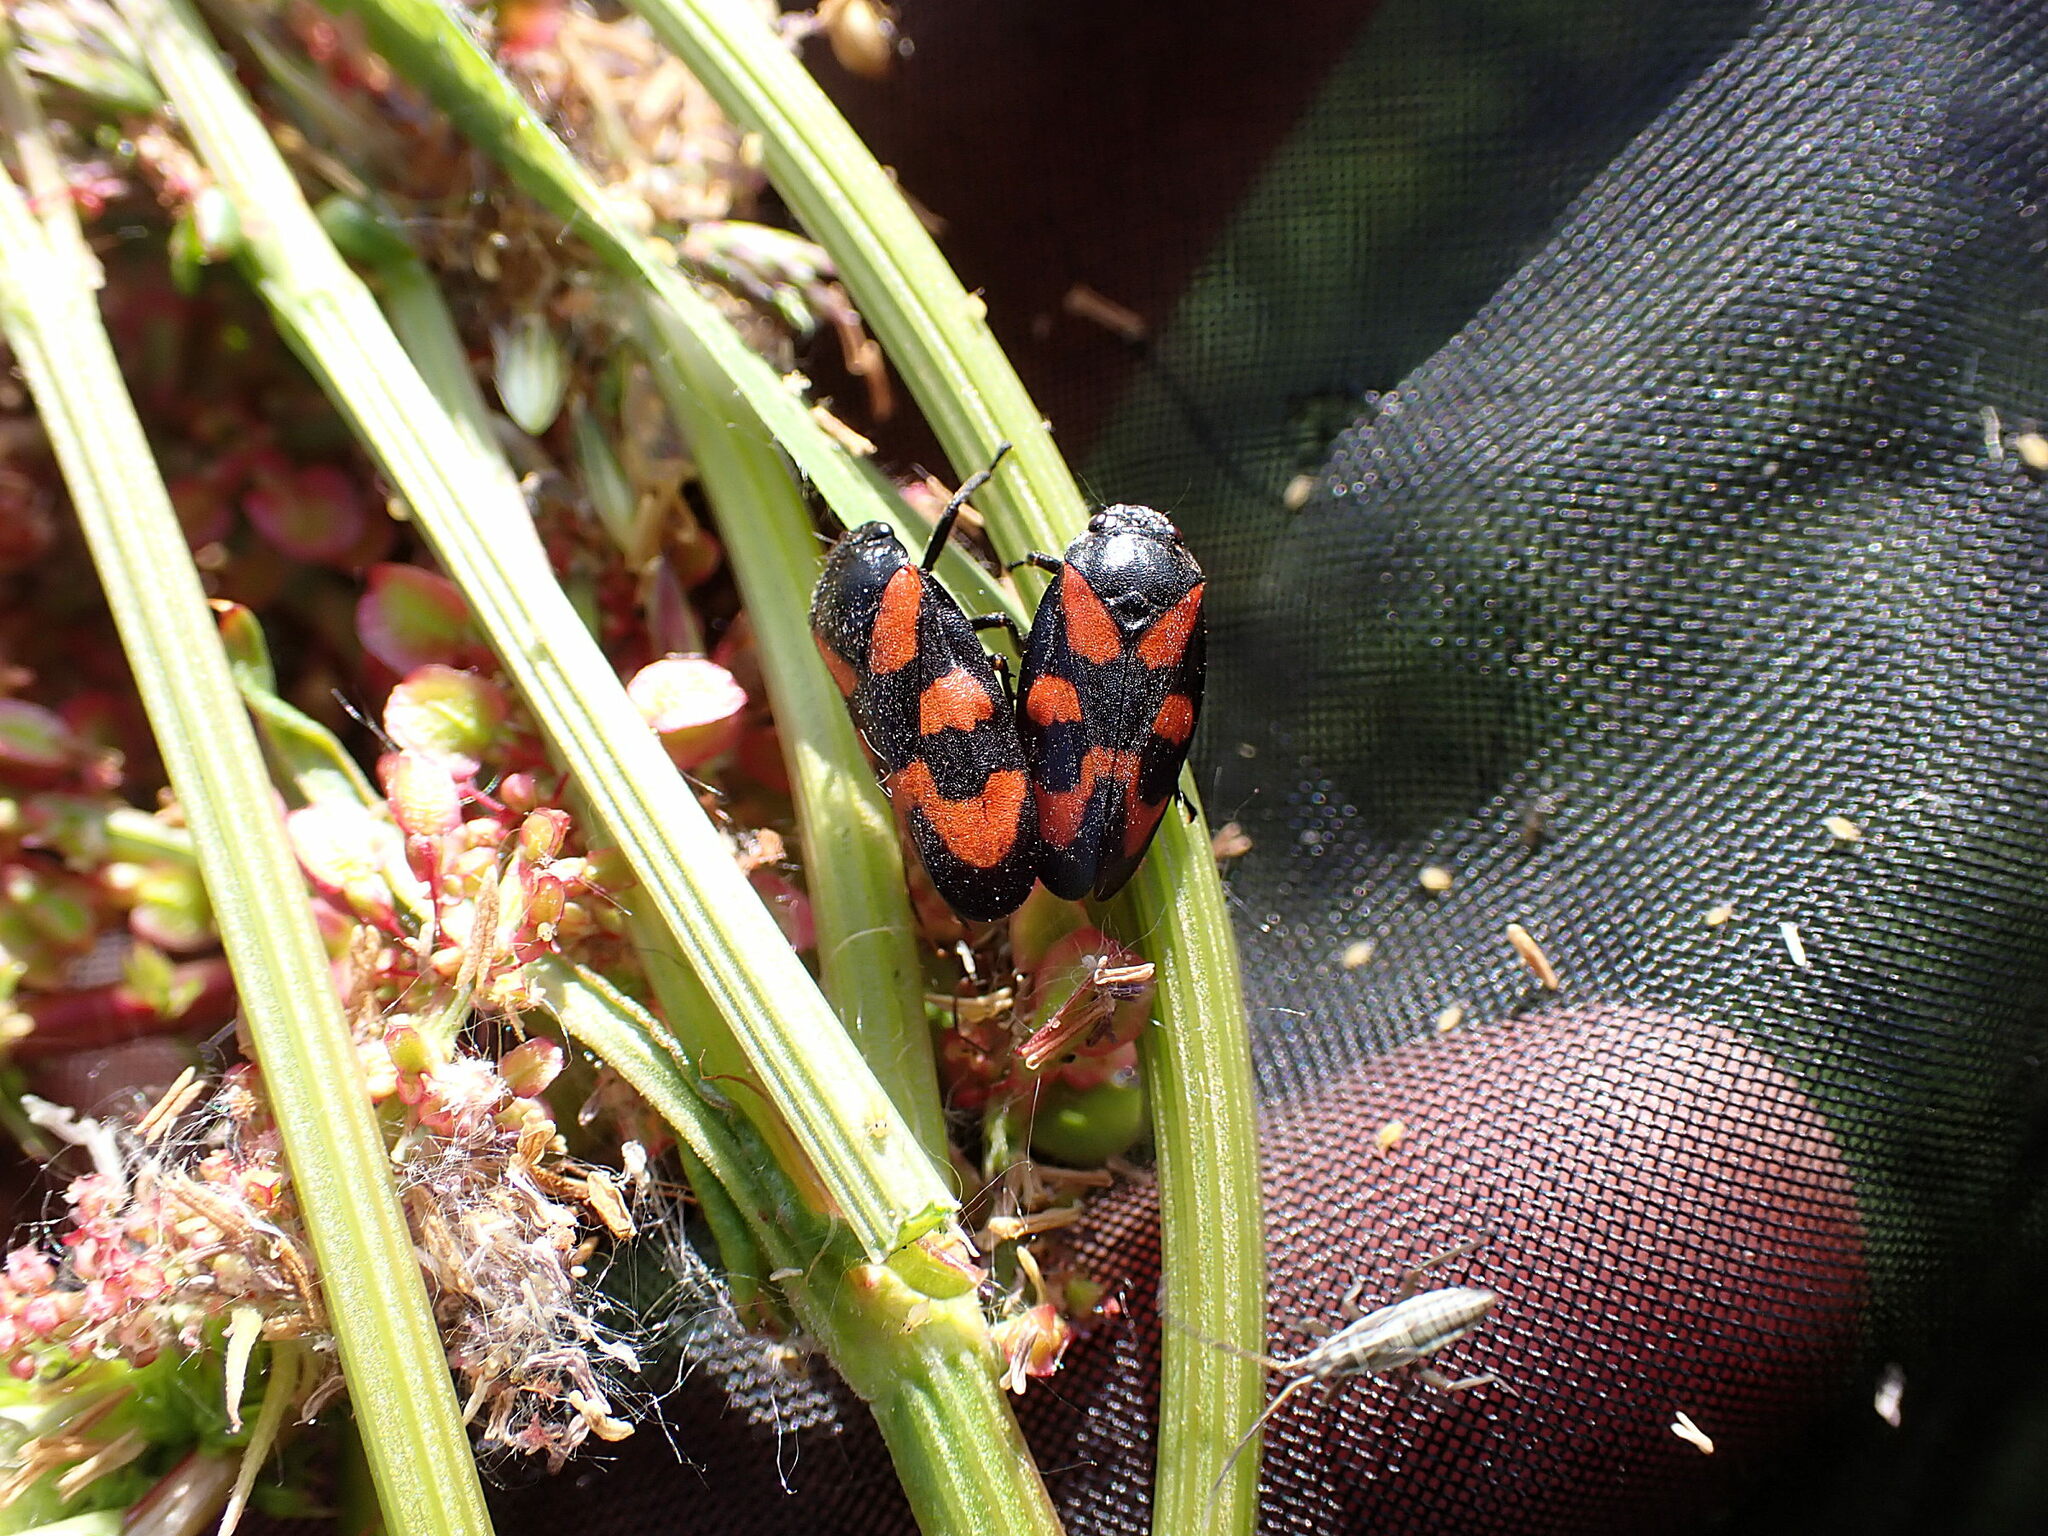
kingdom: Animalia
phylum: Arthropoda
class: Insecta
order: Hemiptera
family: Cercopidae
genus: Cercopis
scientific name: Cercopis vulnerata
